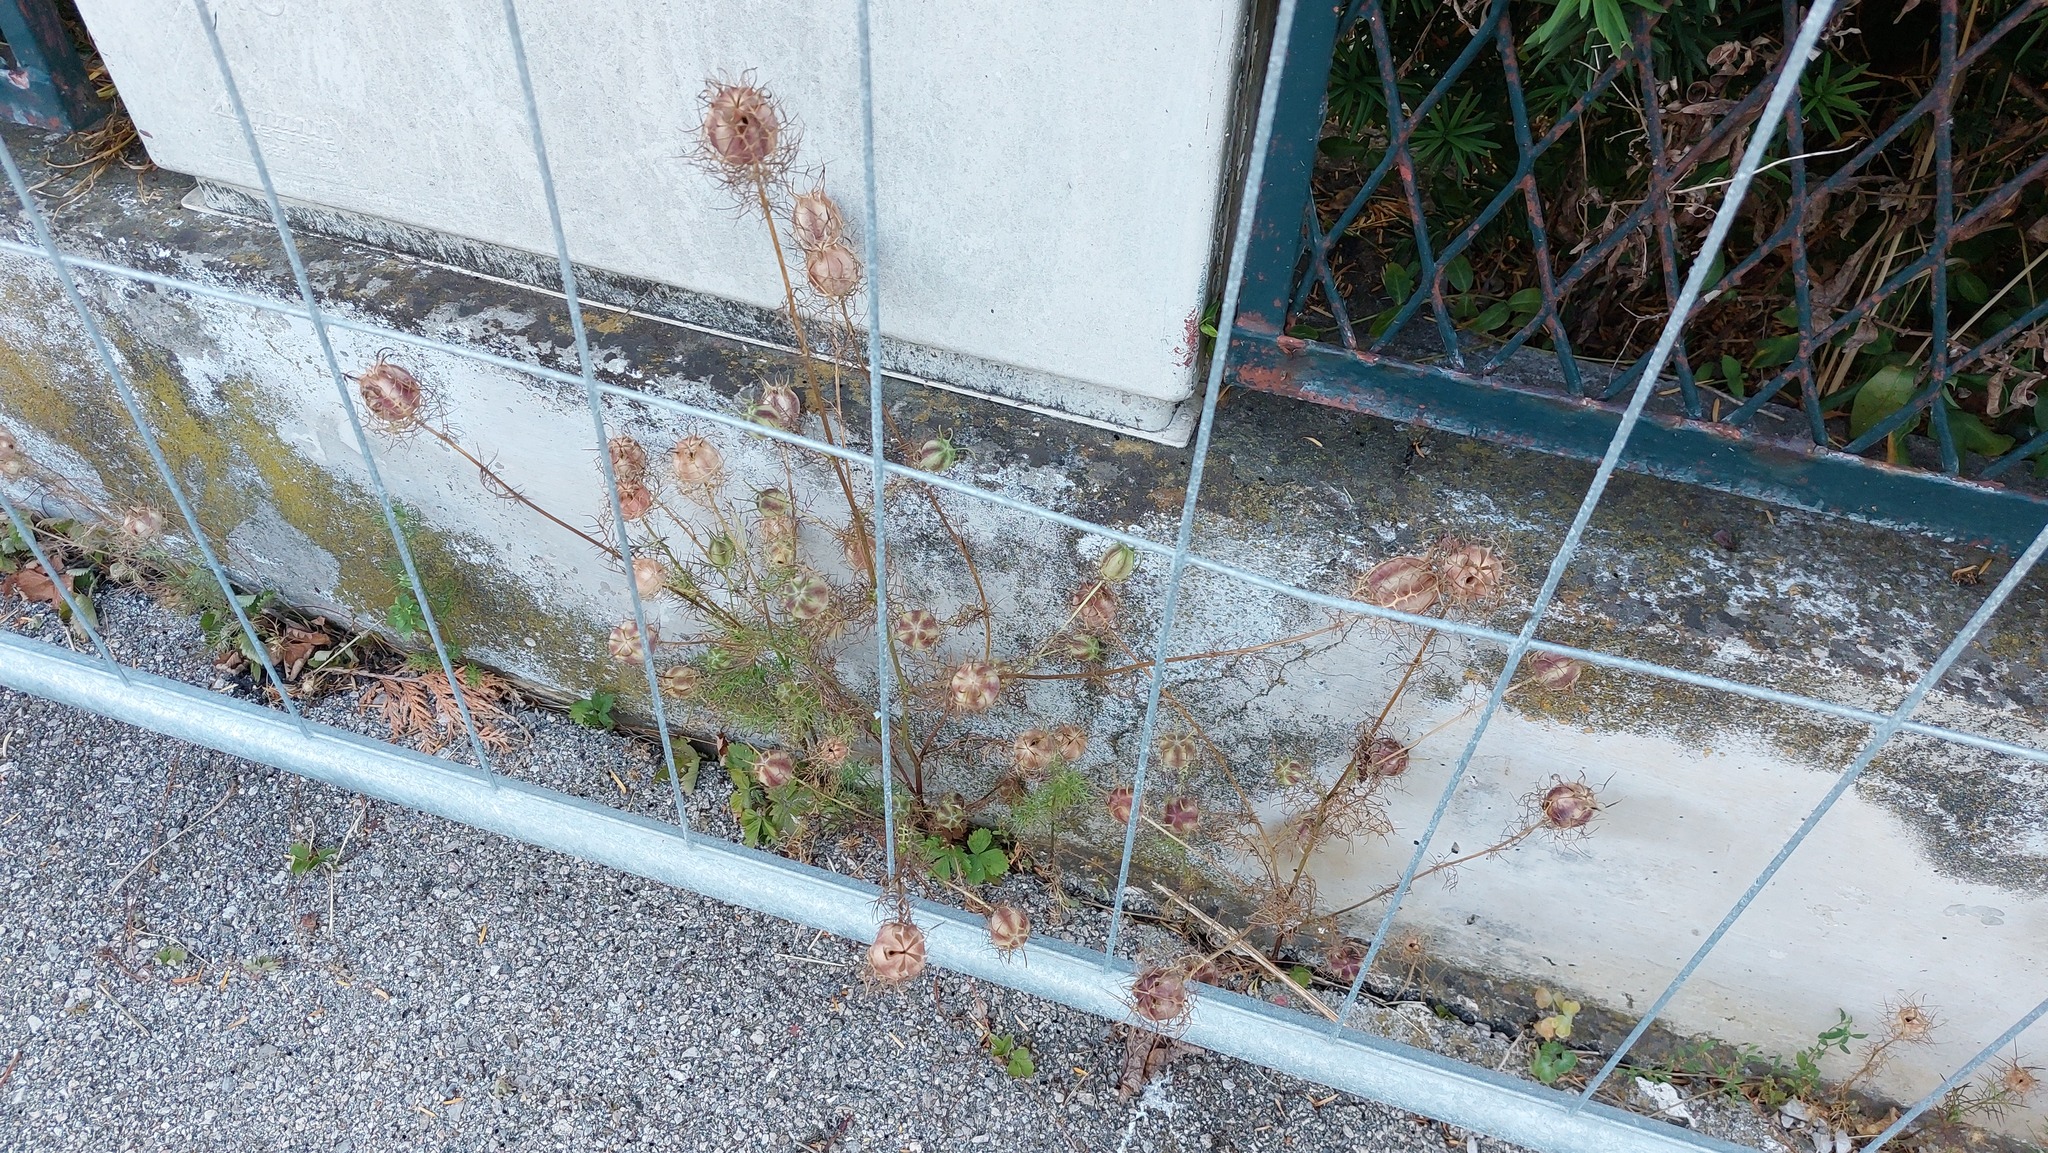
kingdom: Plantae
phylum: Tracheophyta
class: Magnoliopsida
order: Ranunculales
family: Ranunculaceae
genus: Nigella
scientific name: Nigella damascena
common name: Love-in-a-mist
